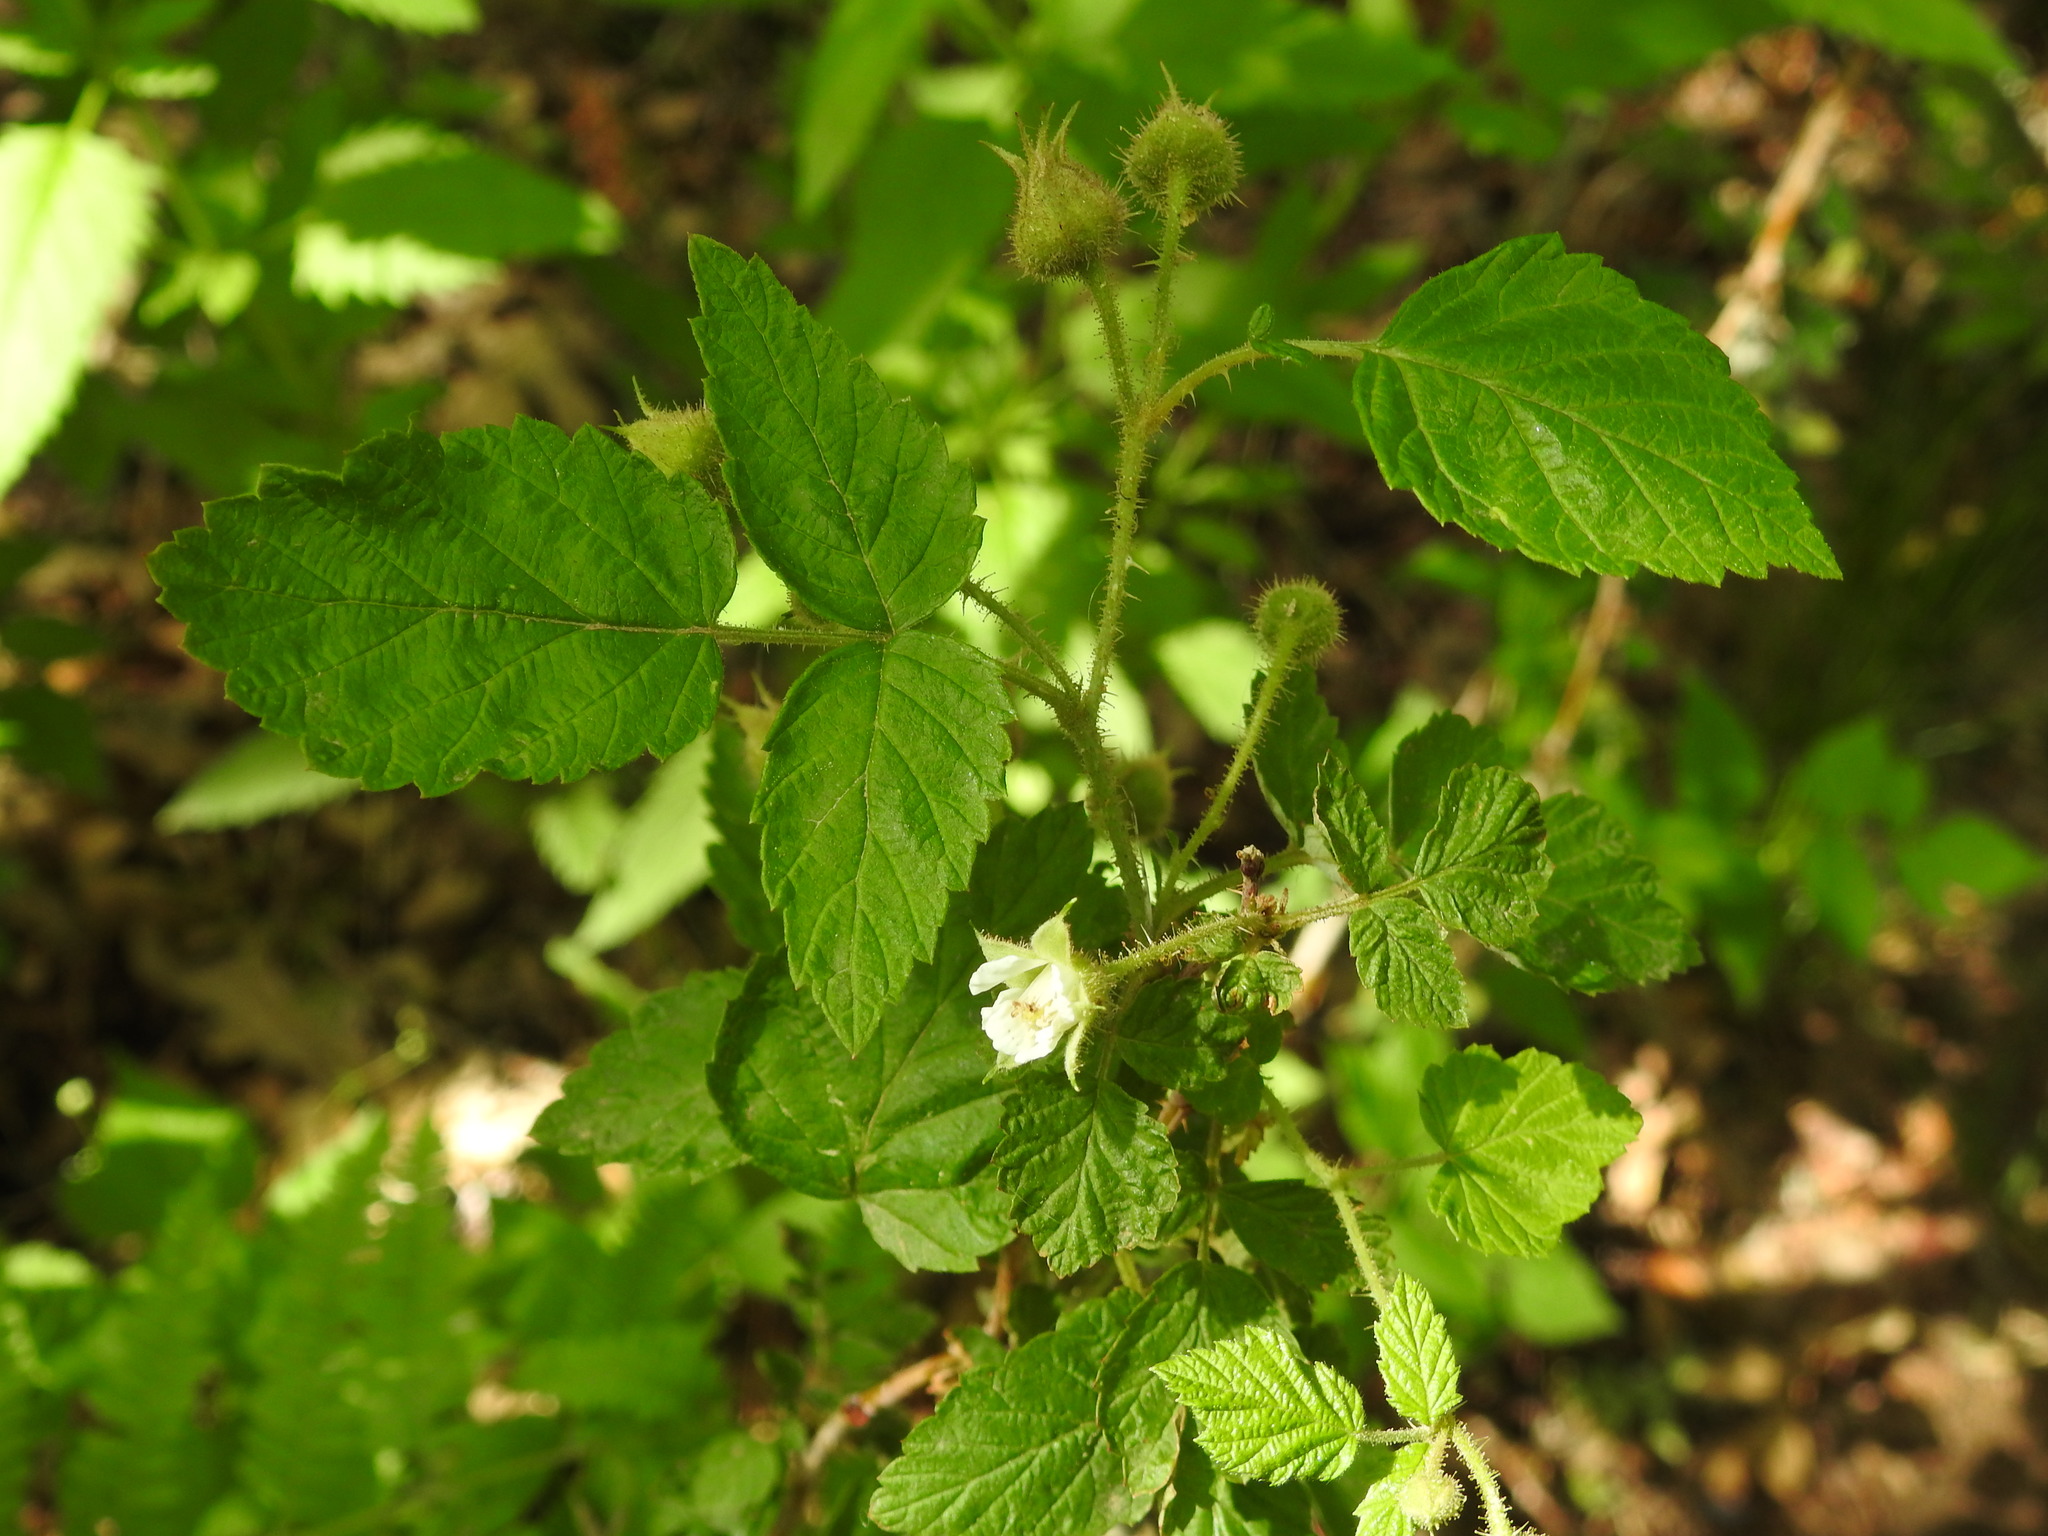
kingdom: Plantae
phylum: Tracheophyta
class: Magnoliopsida
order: Rosales
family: Rosaceae
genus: Rubus
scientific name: Rubus idaeus
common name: Raspberry
